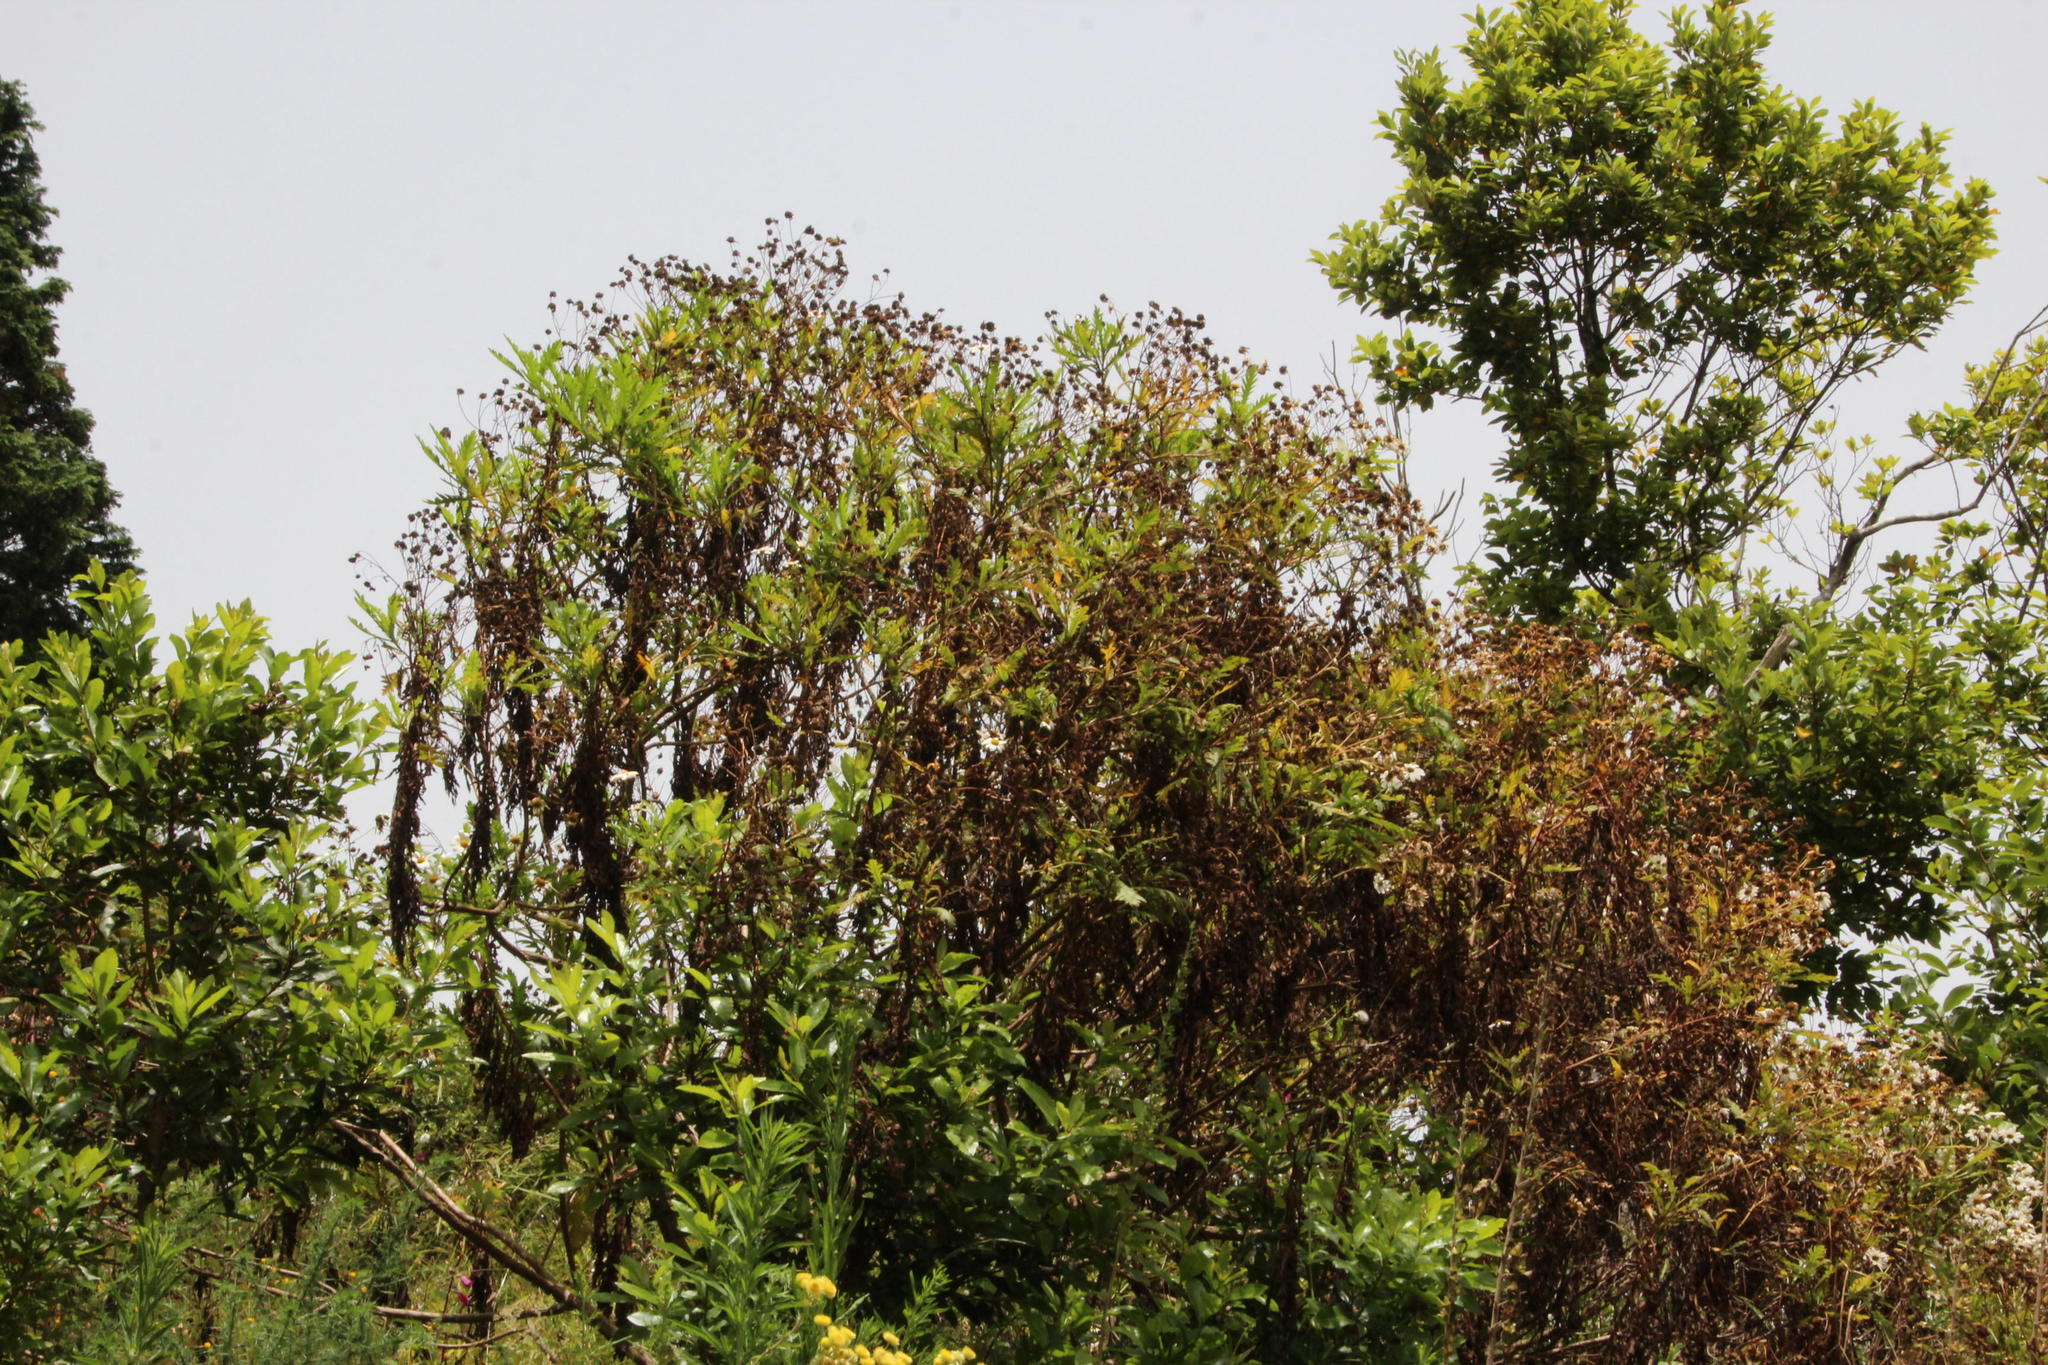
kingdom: Plantae
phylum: Tracheophyta
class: Magnoliopsida
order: Asterales
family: Asteraceae
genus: Argyranthemum
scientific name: Argyranthemum pinnatifidum
